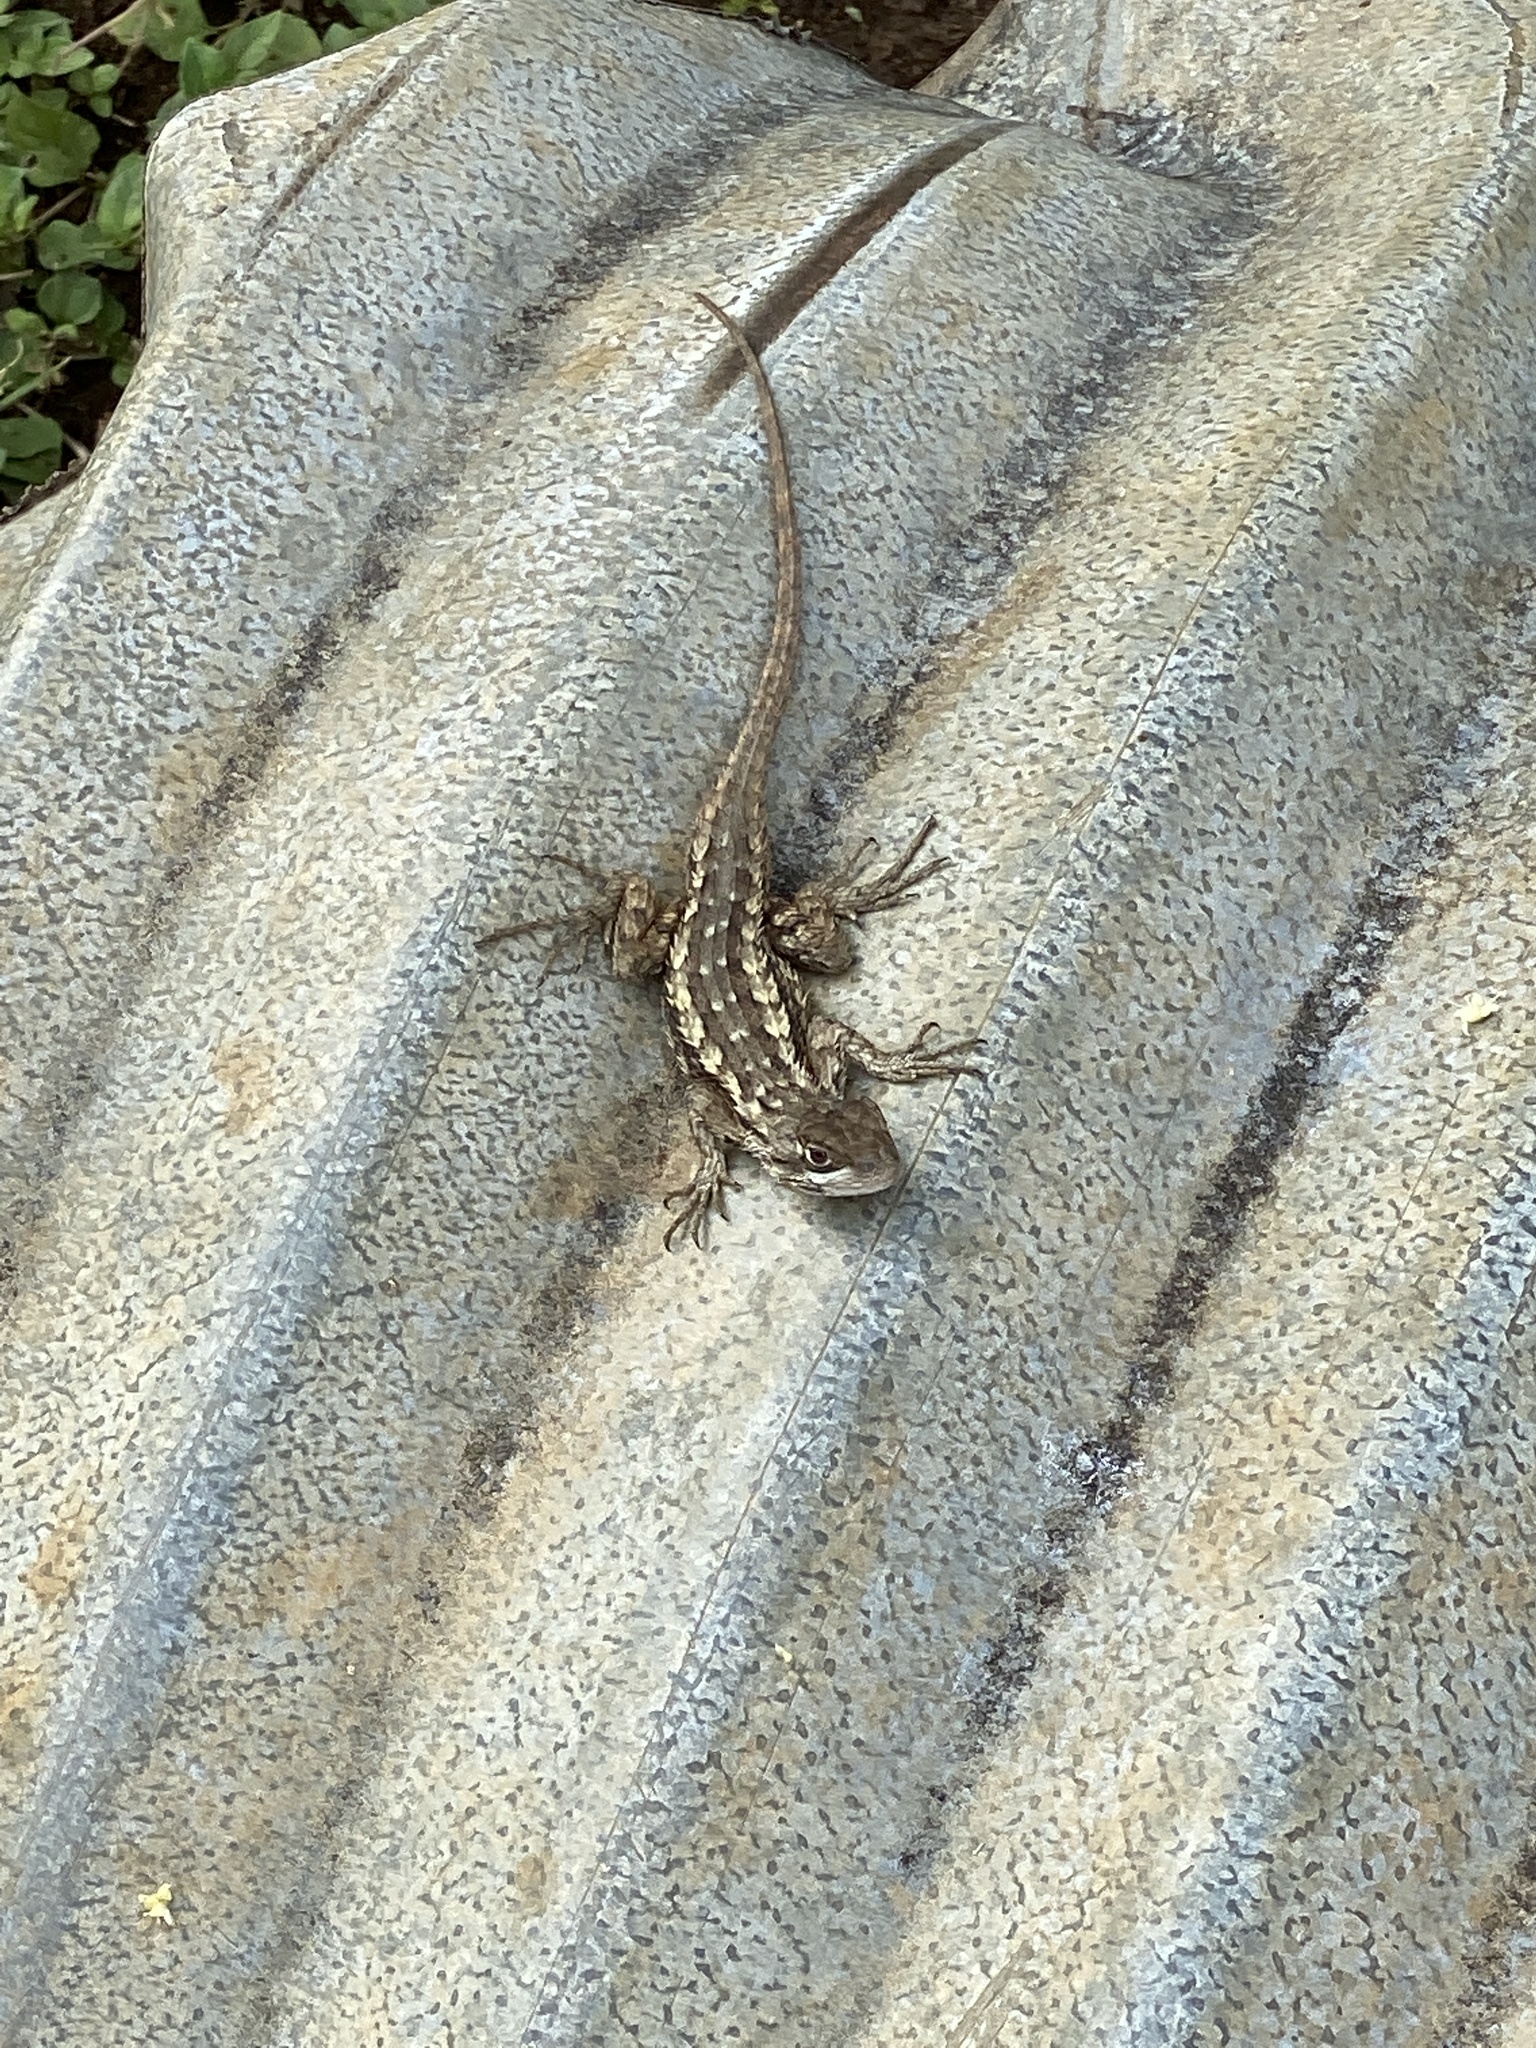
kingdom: Animalia
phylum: Chordata
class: Squamata
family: Phrynosomatidae
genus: Sceloporus
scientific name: Sceloporus olivaceus
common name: Texas spiny lizard
